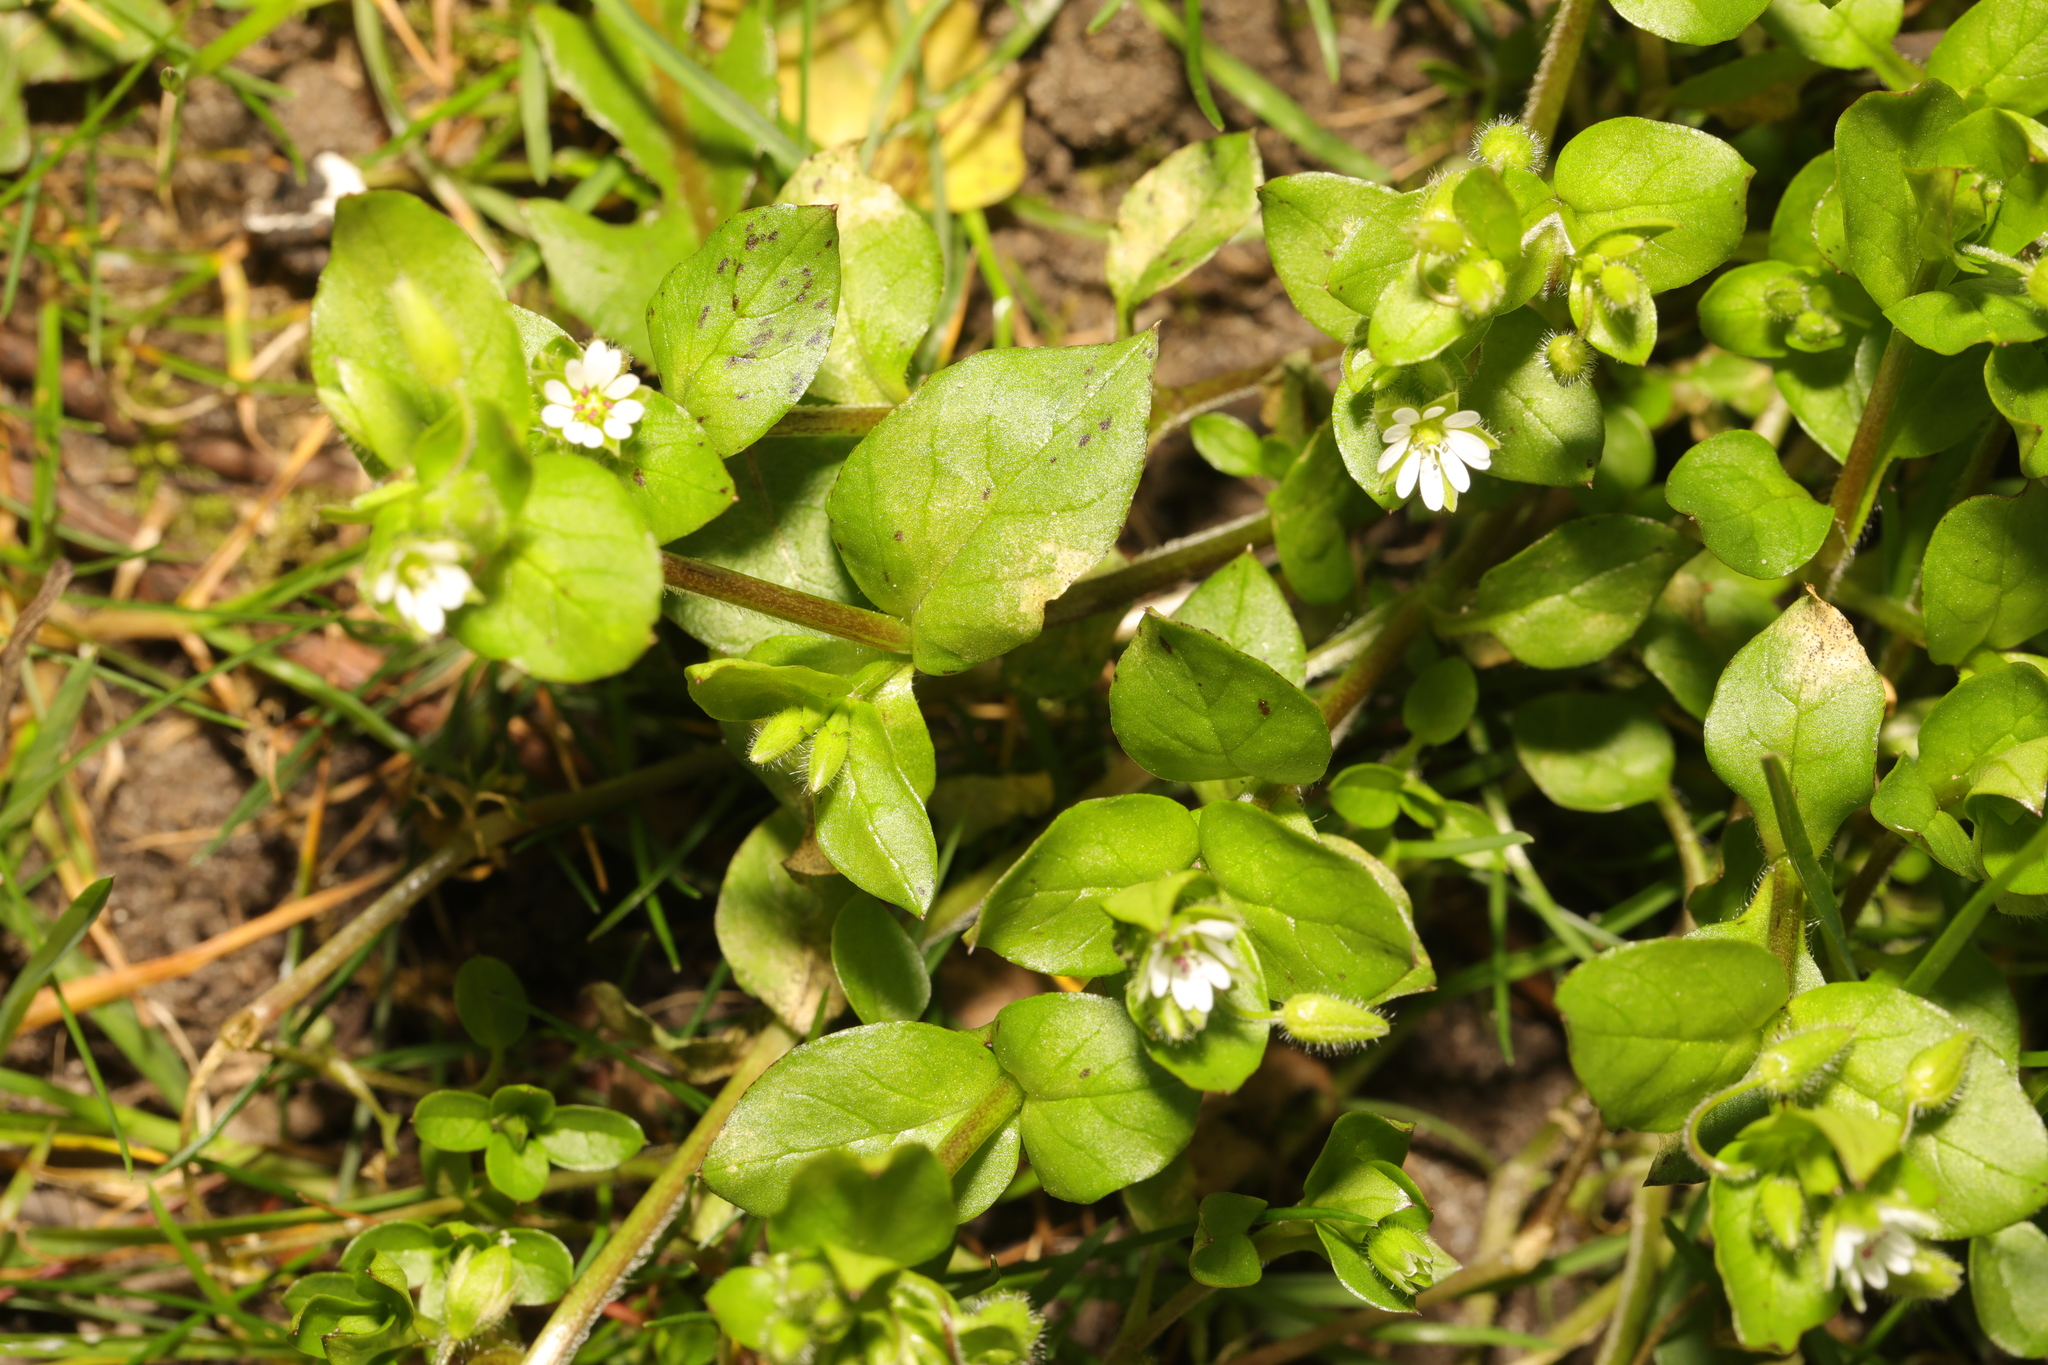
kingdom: Plantae
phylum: Tracheophyta
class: Magnoliopsida
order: Caryophyllales
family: Caryophyllaceae
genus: Stellaria
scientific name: Stellaria media
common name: Common chickweed
